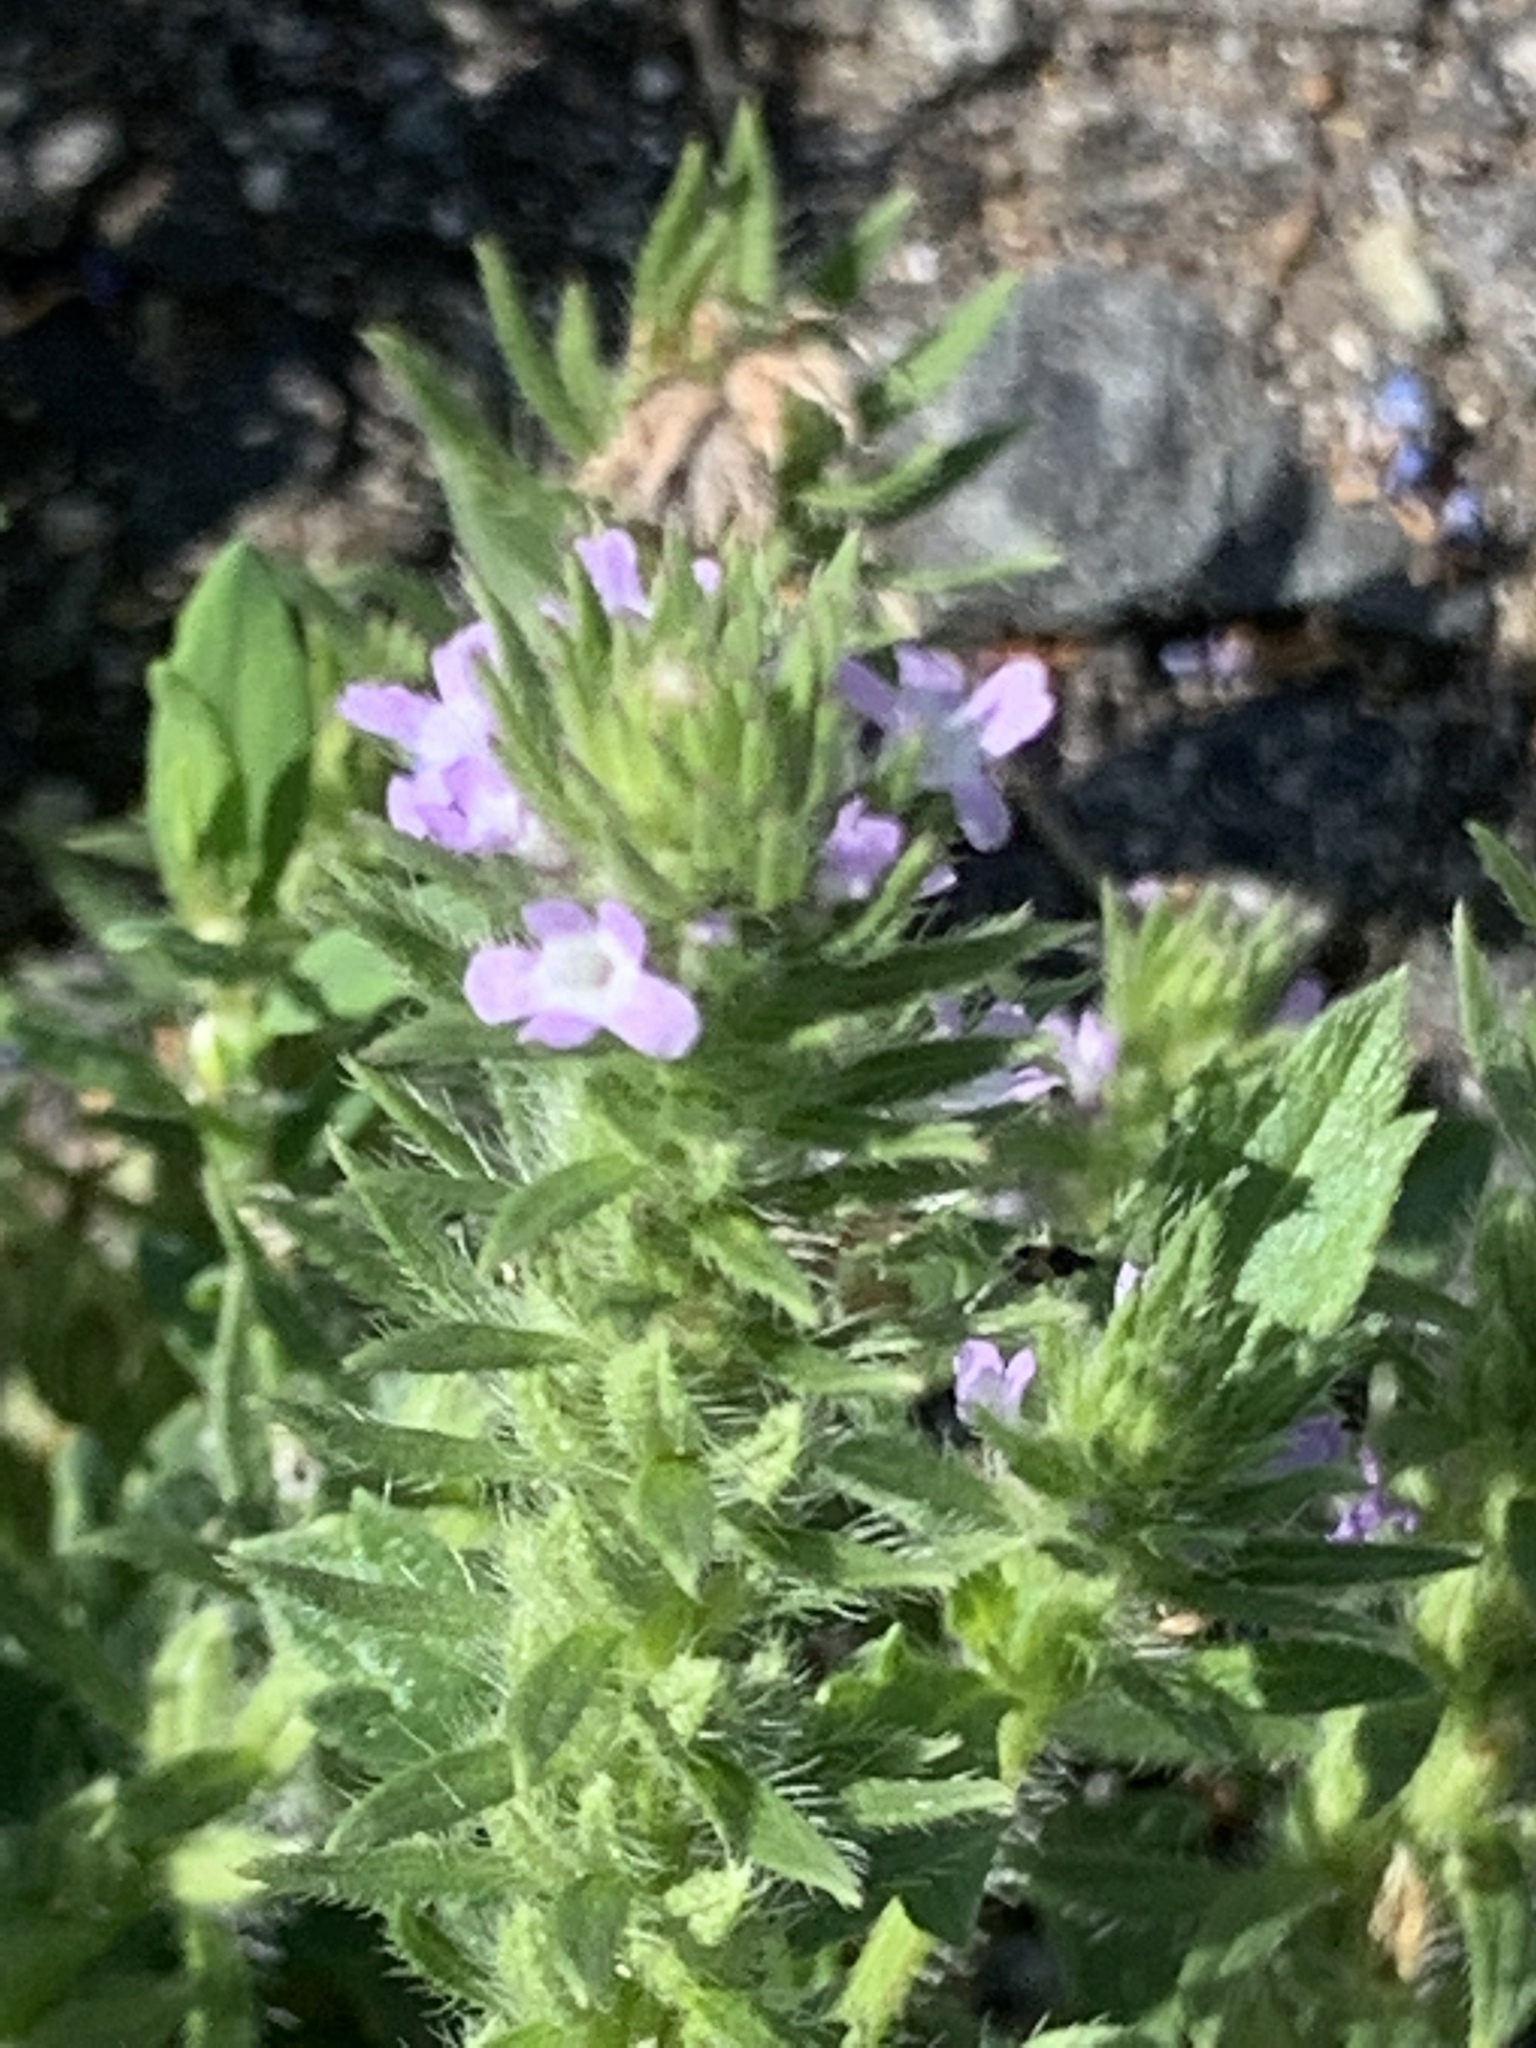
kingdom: Plantae
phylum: Tracheophyta
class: Magnoliopsida
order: Lamiales
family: Verbenaceae
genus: Verbena
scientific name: Verbena bracteata
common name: Bracted vervain
